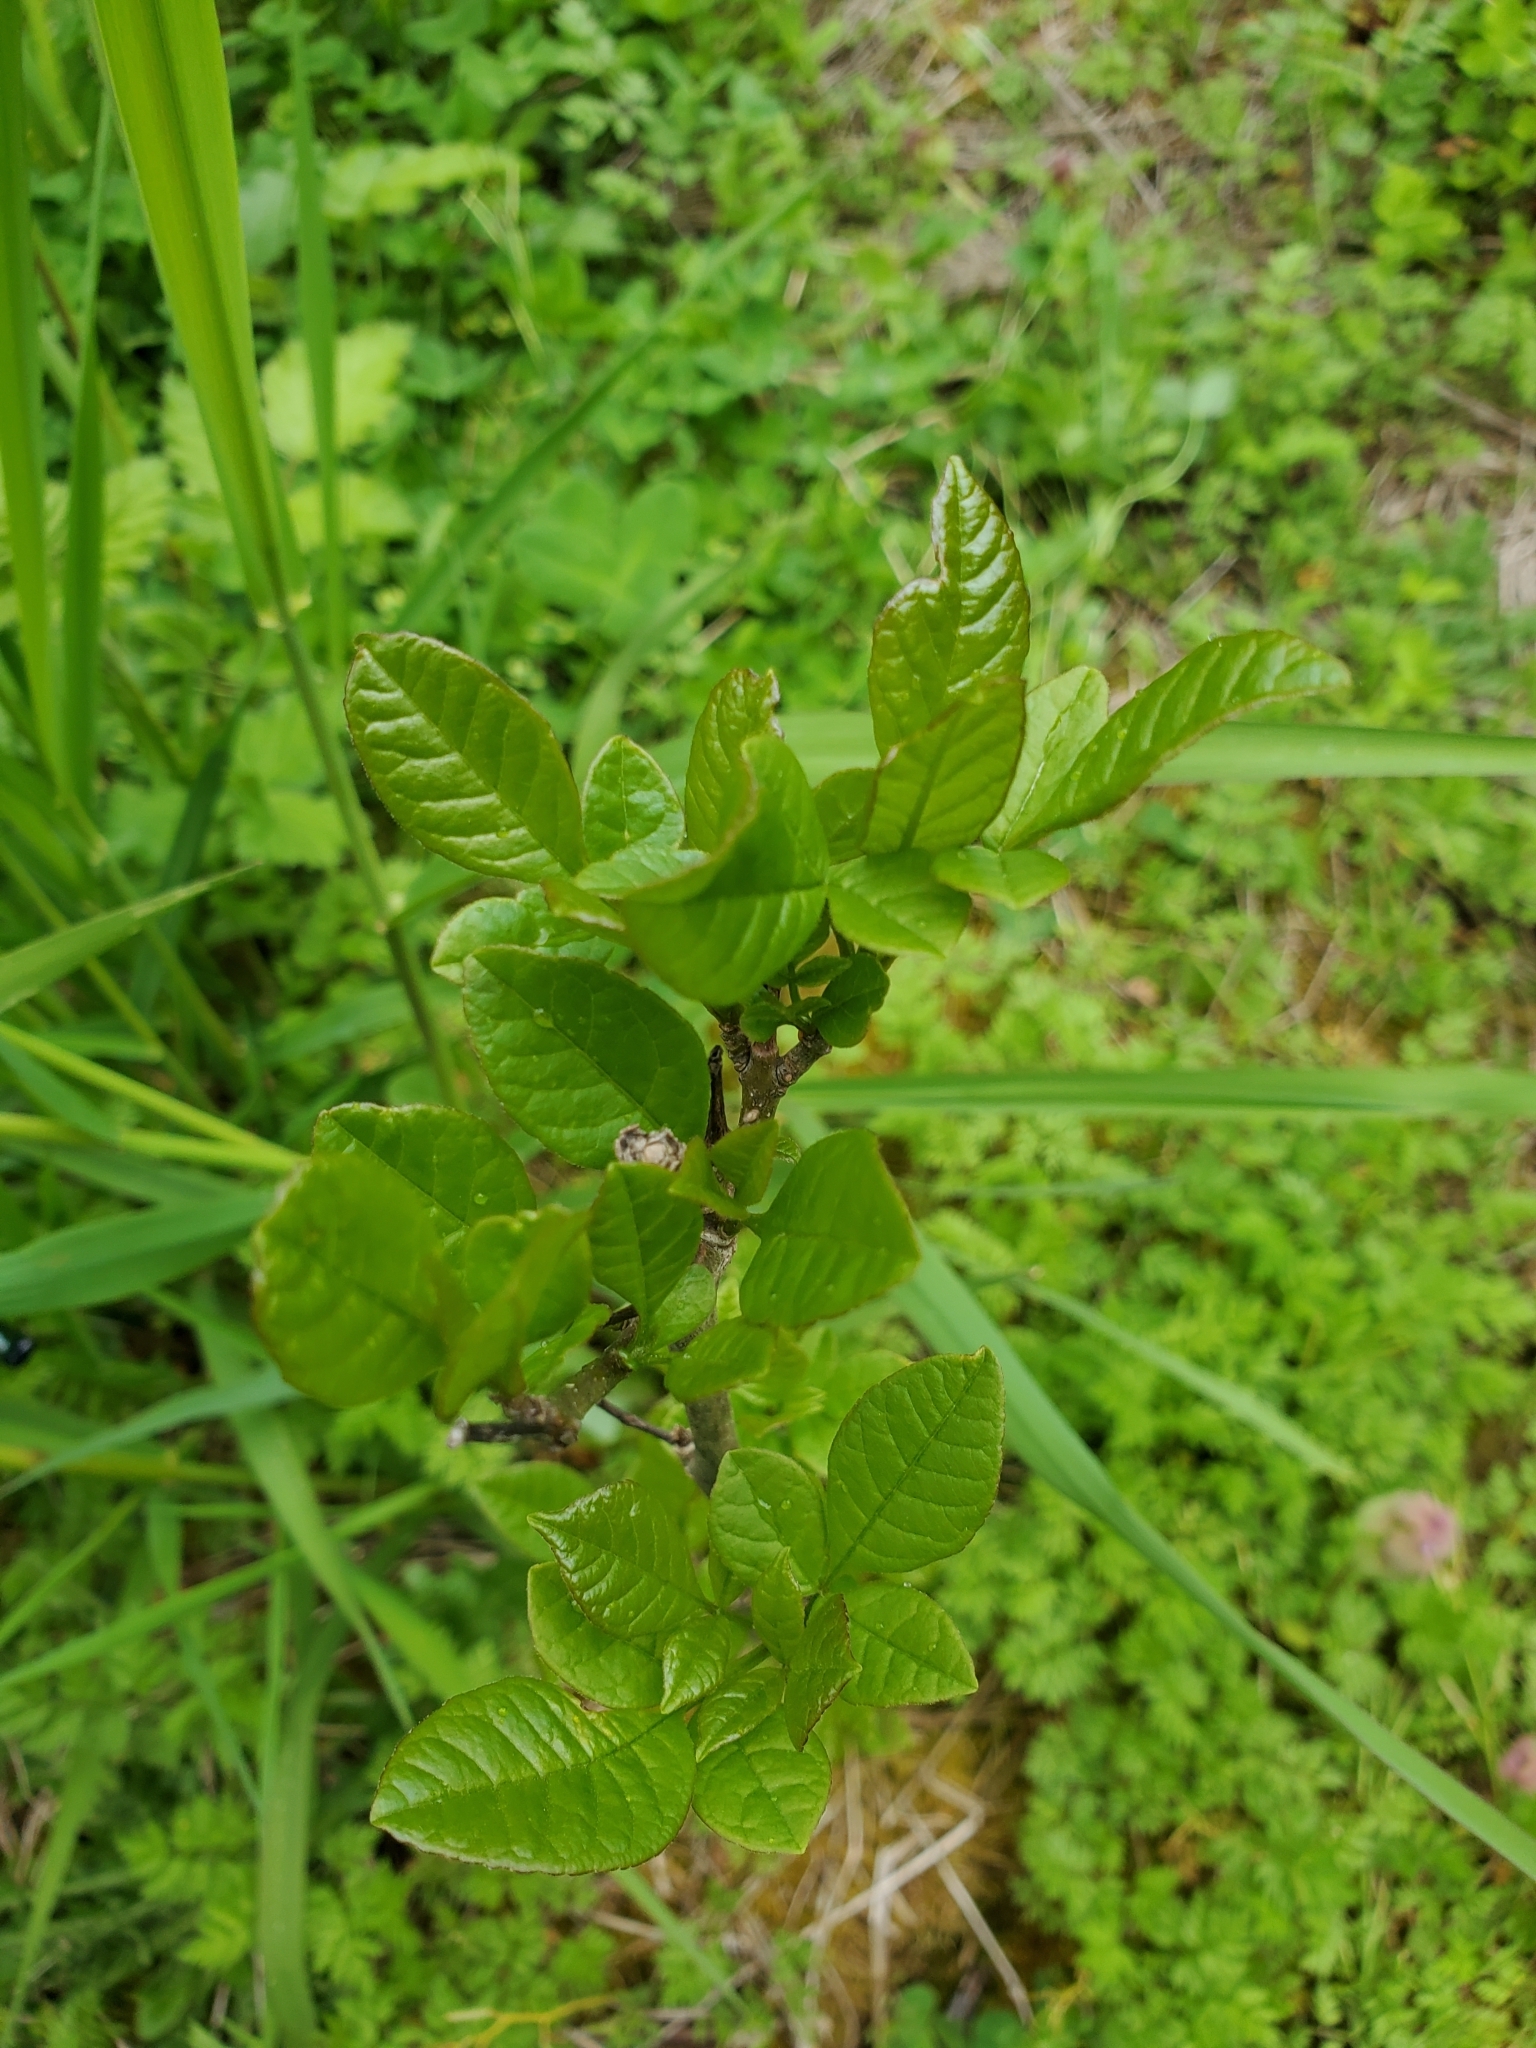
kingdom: Plantae
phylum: Tracheophyta
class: Magnoliopsida
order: Lamiales
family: Oleaceae
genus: Fraxinus
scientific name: Fraxinus latifolia
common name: Oregon ash
